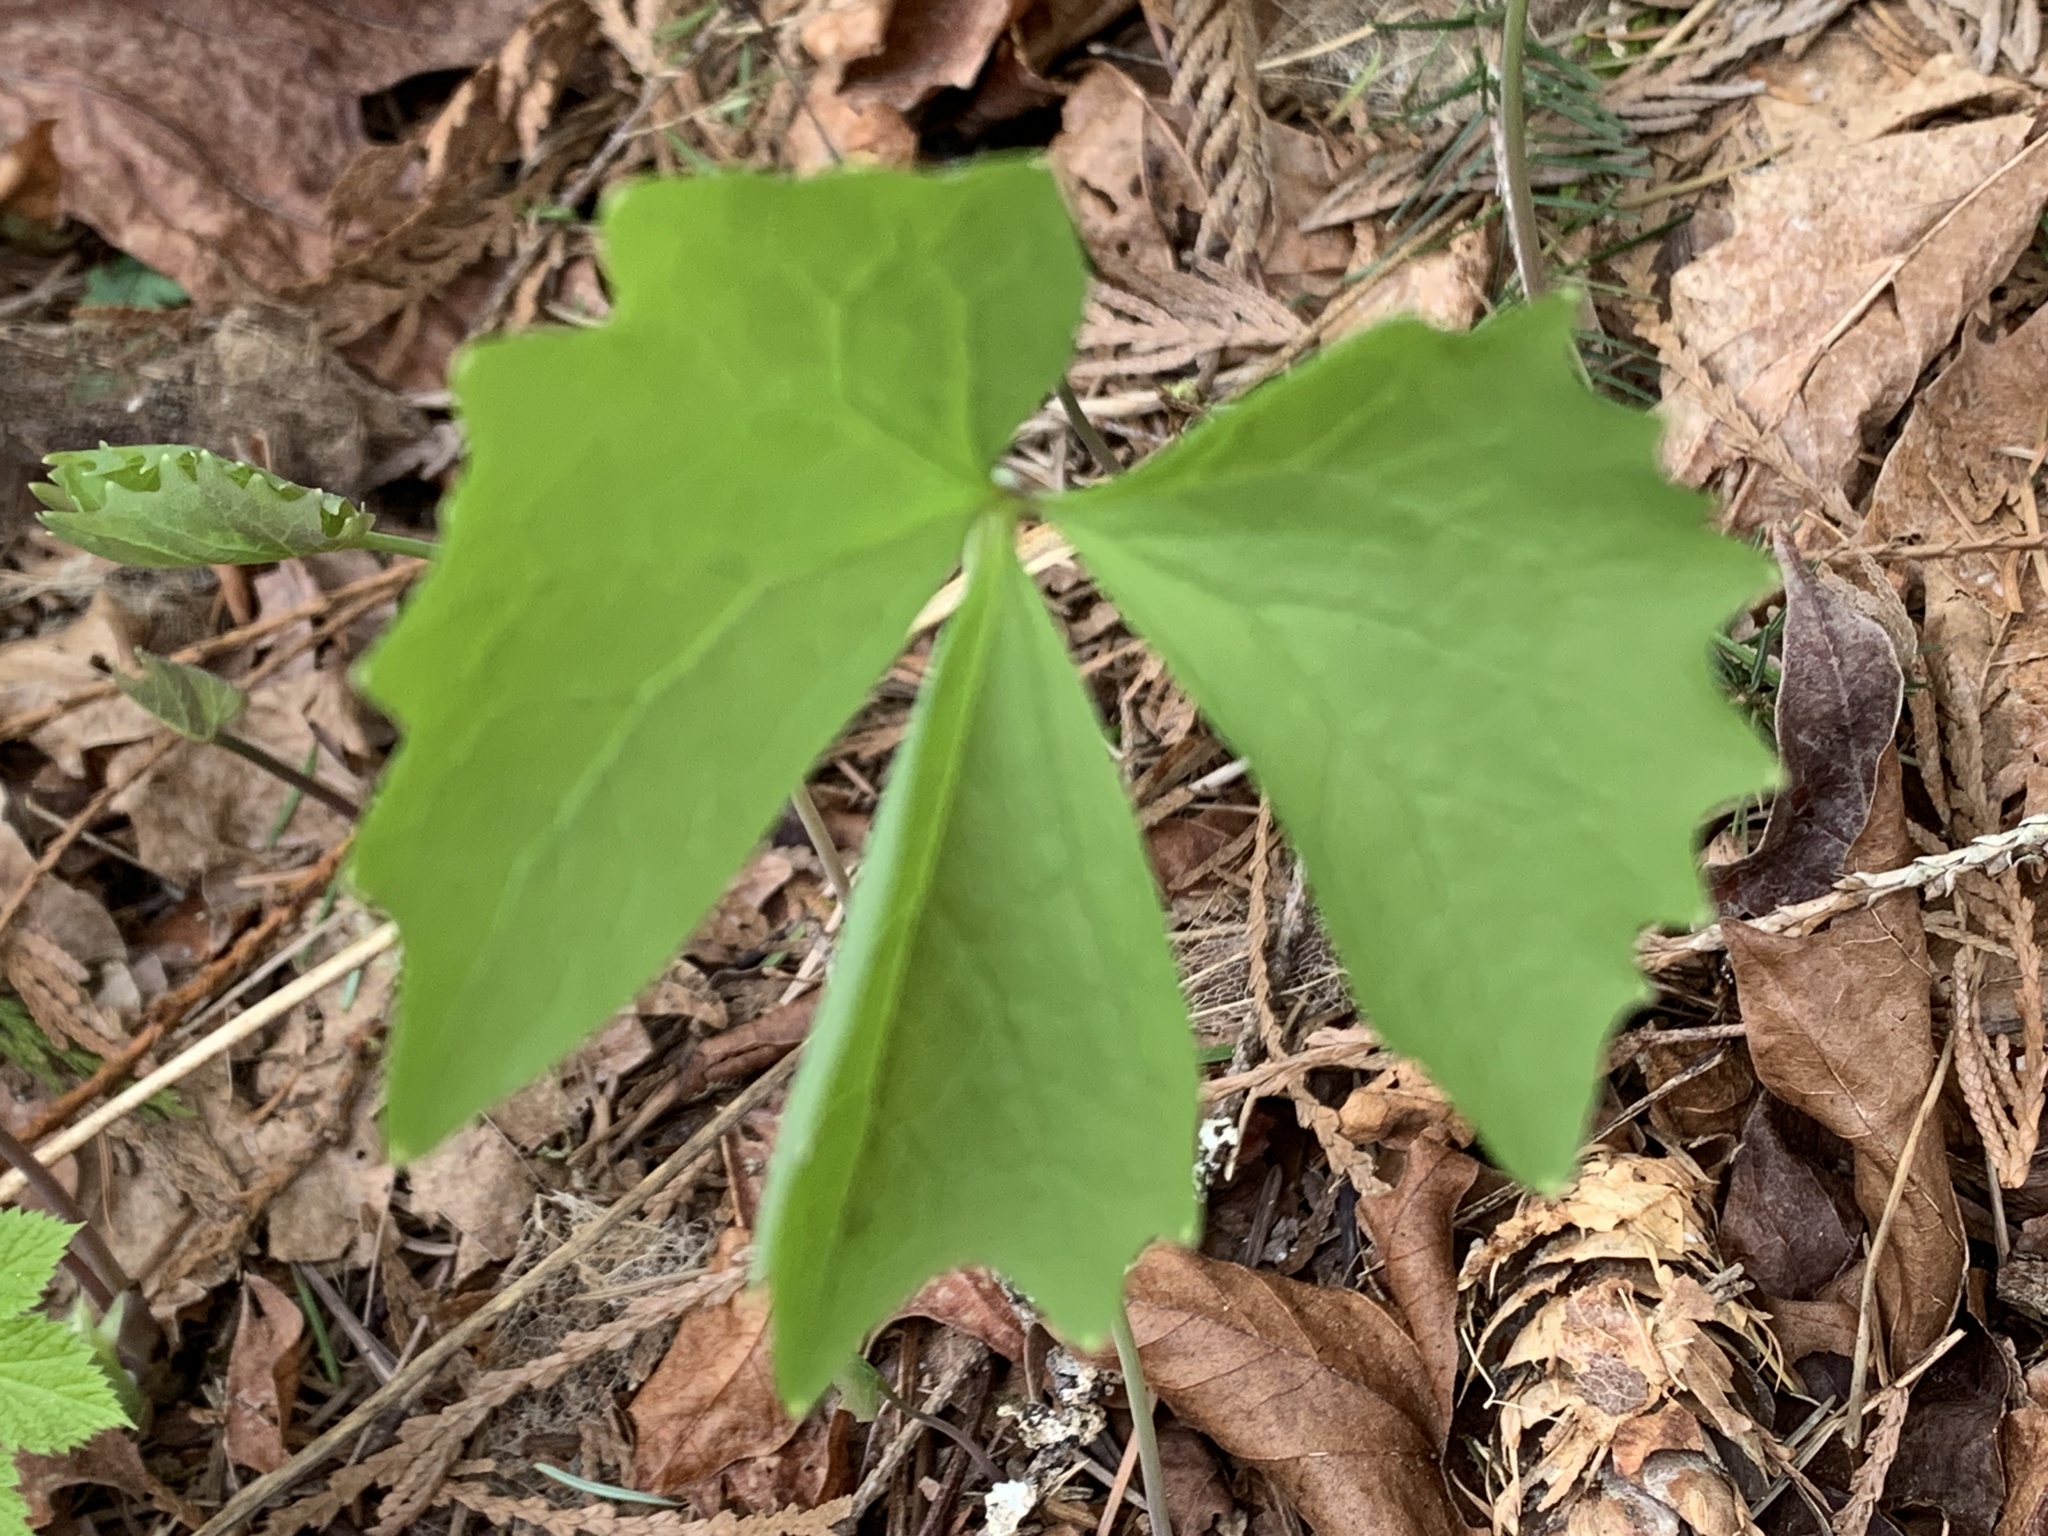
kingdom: Plantae
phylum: Tracheophyta
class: Magnoliopsida
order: Ranunculales
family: Berberidaceae
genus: Achlys
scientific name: Achlys triphylla
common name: Vanilla-leaf
